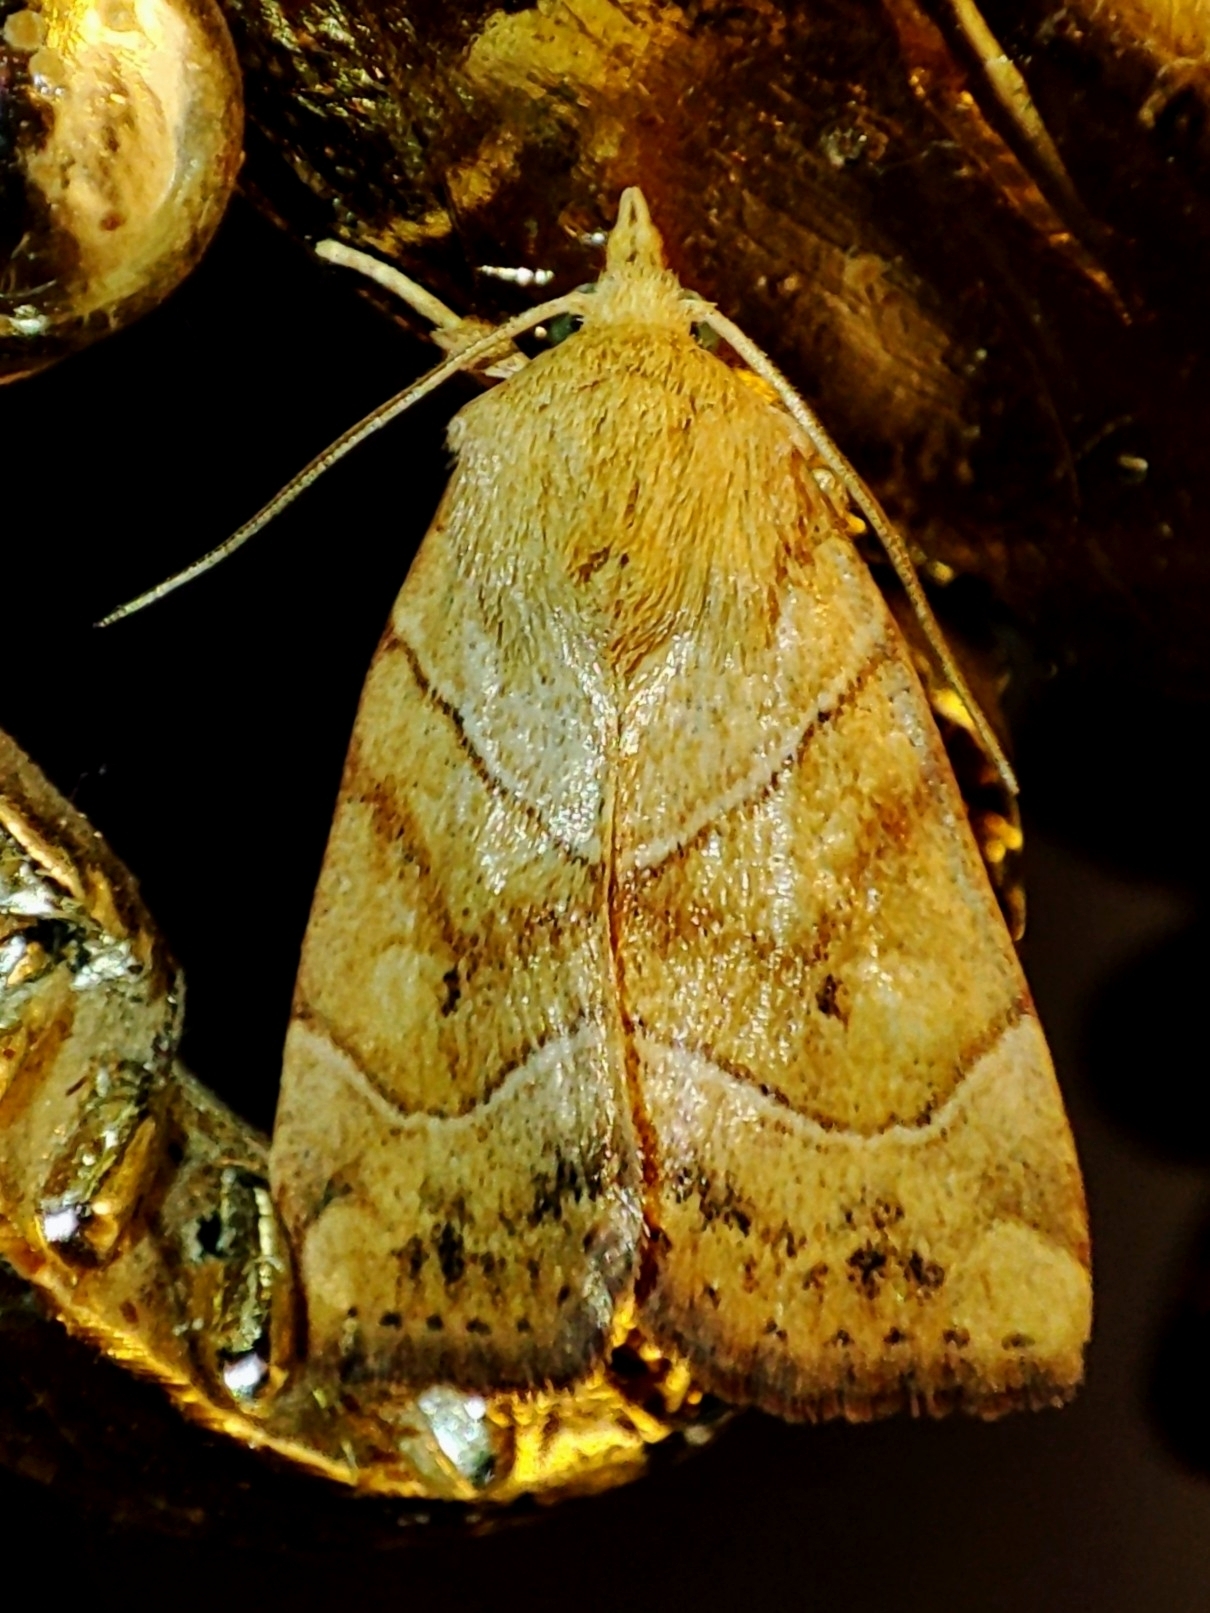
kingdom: Animalia
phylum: Arthropoda
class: Insecta
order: Lepidoptera
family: Noctuidae
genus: Cosmia
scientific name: Cosmia trapezina
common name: Dun-bar
